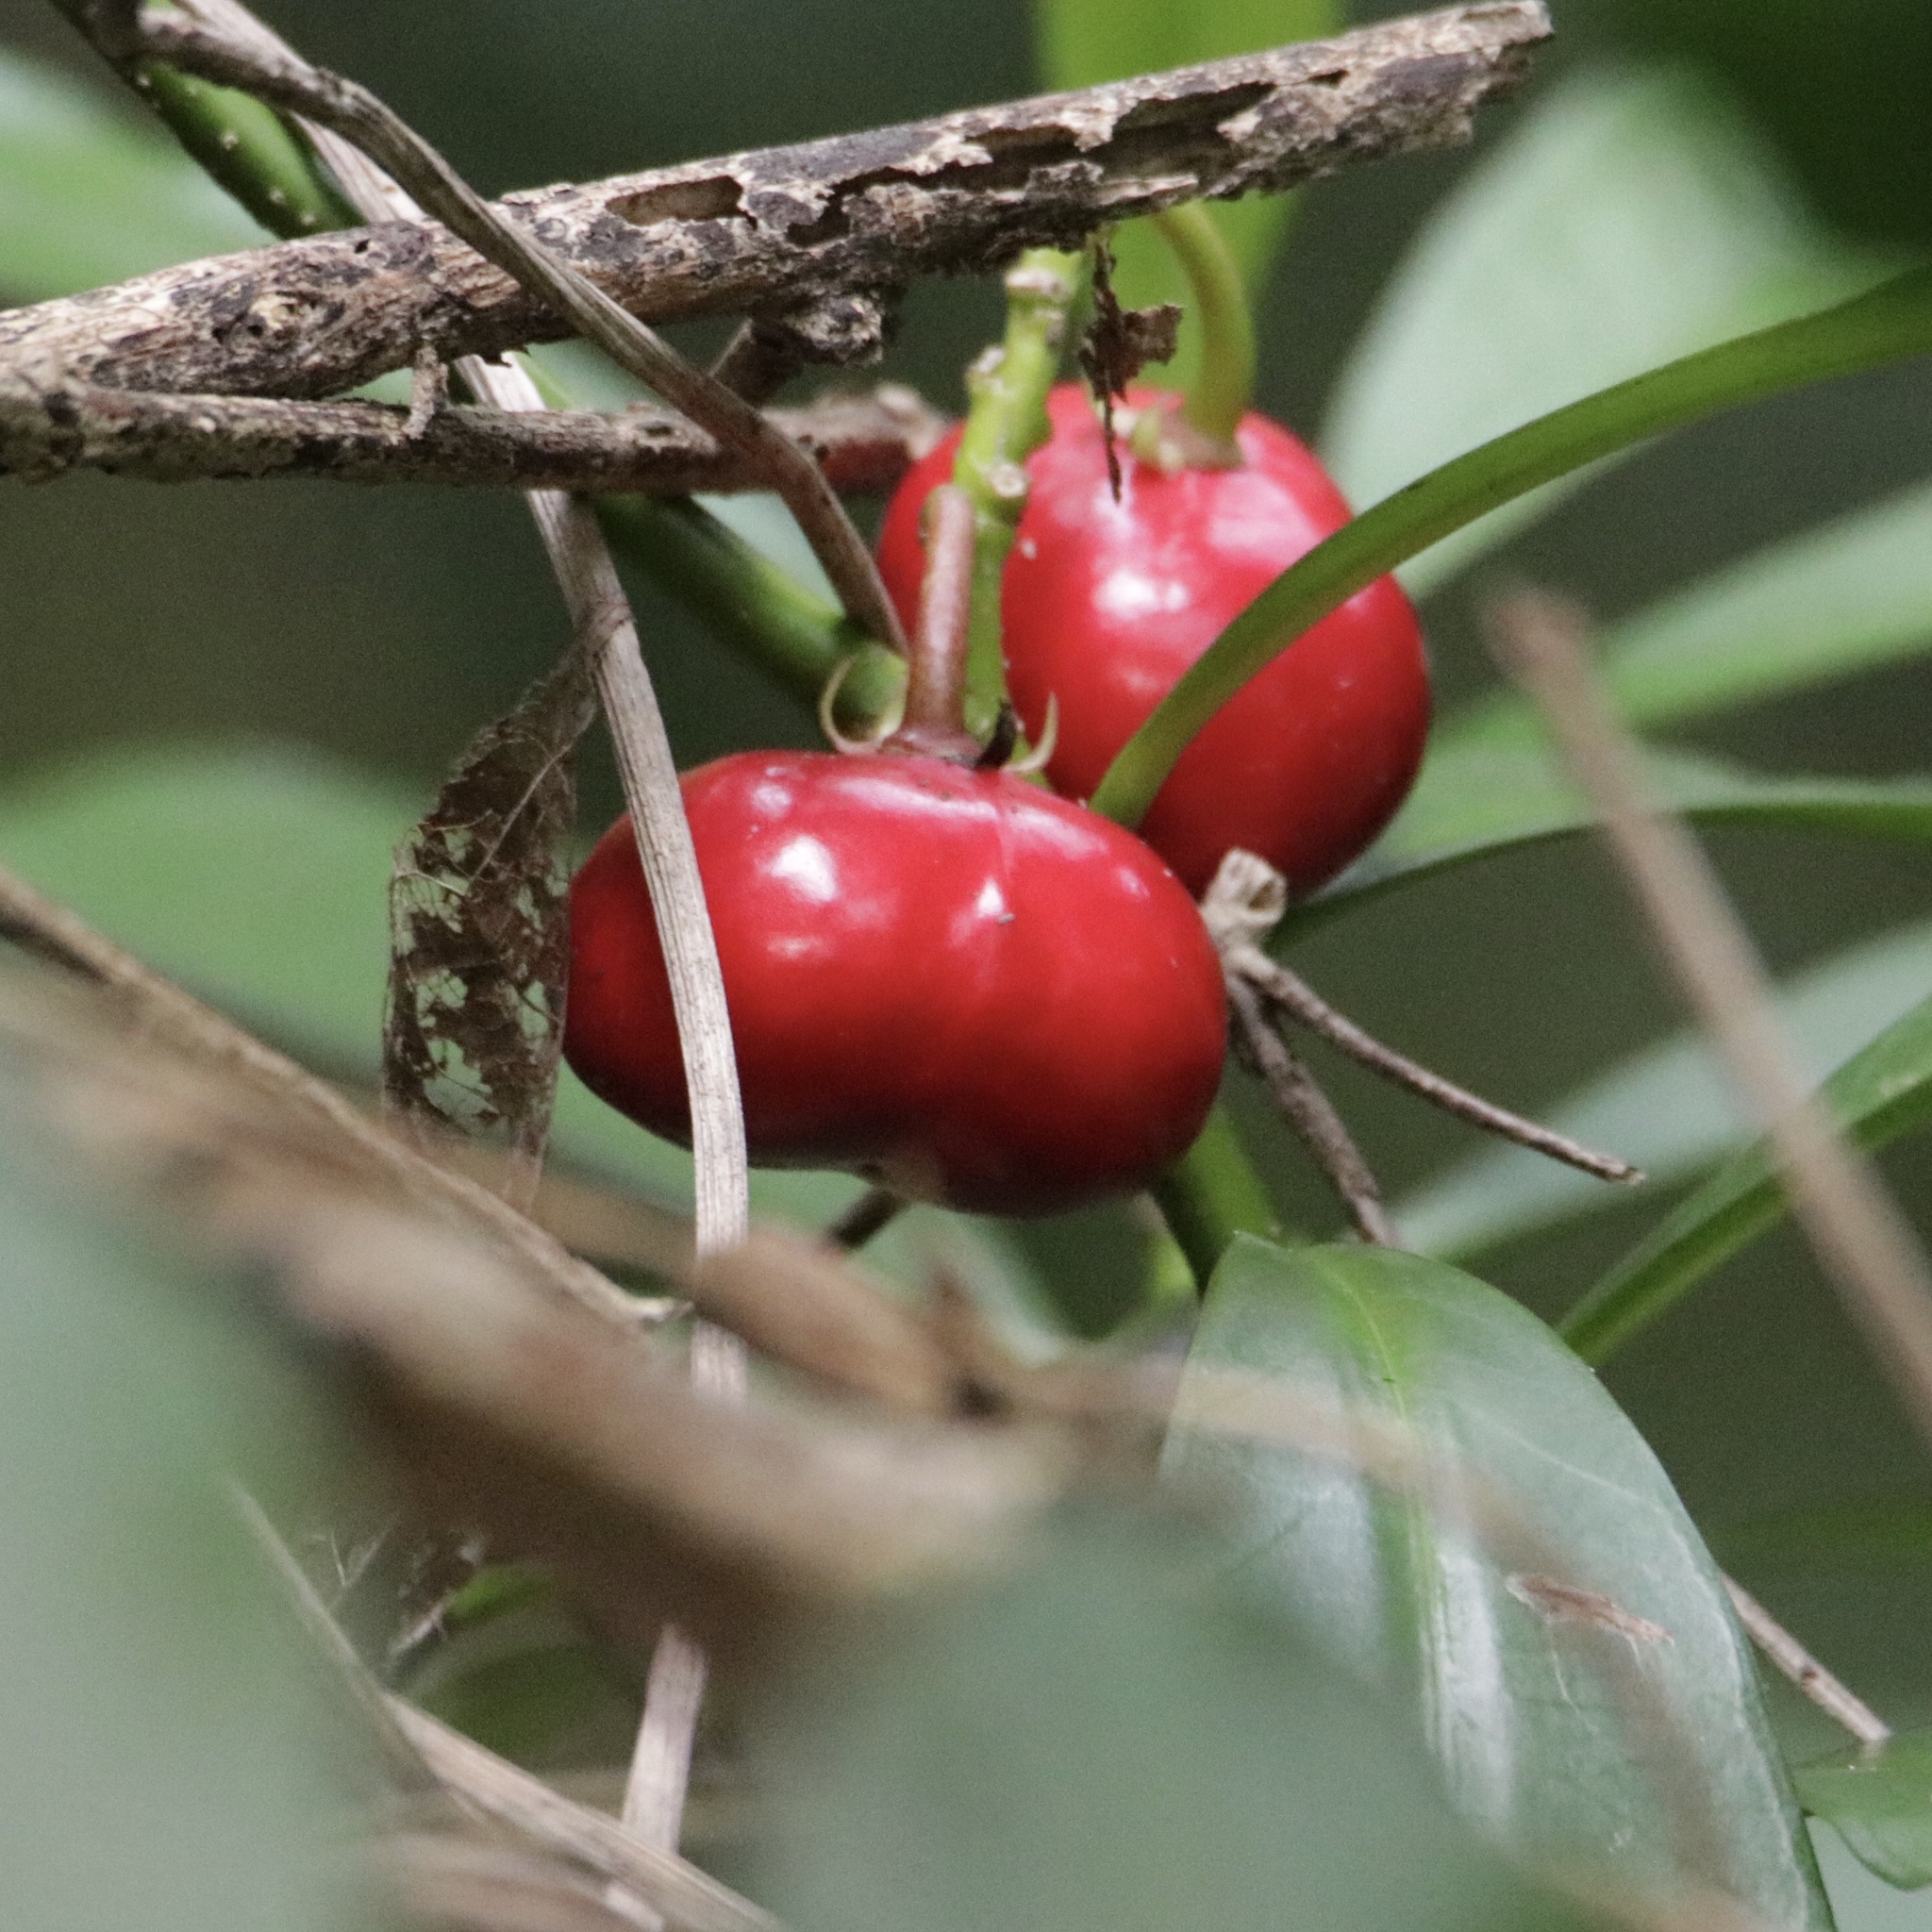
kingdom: Plantae
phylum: Tracheophyta
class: Magnoliopsida
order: Gentianales
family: Apocynaceae
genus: Thevetia
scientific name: Thevetia ahouai
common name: Broadleaf thevetia
